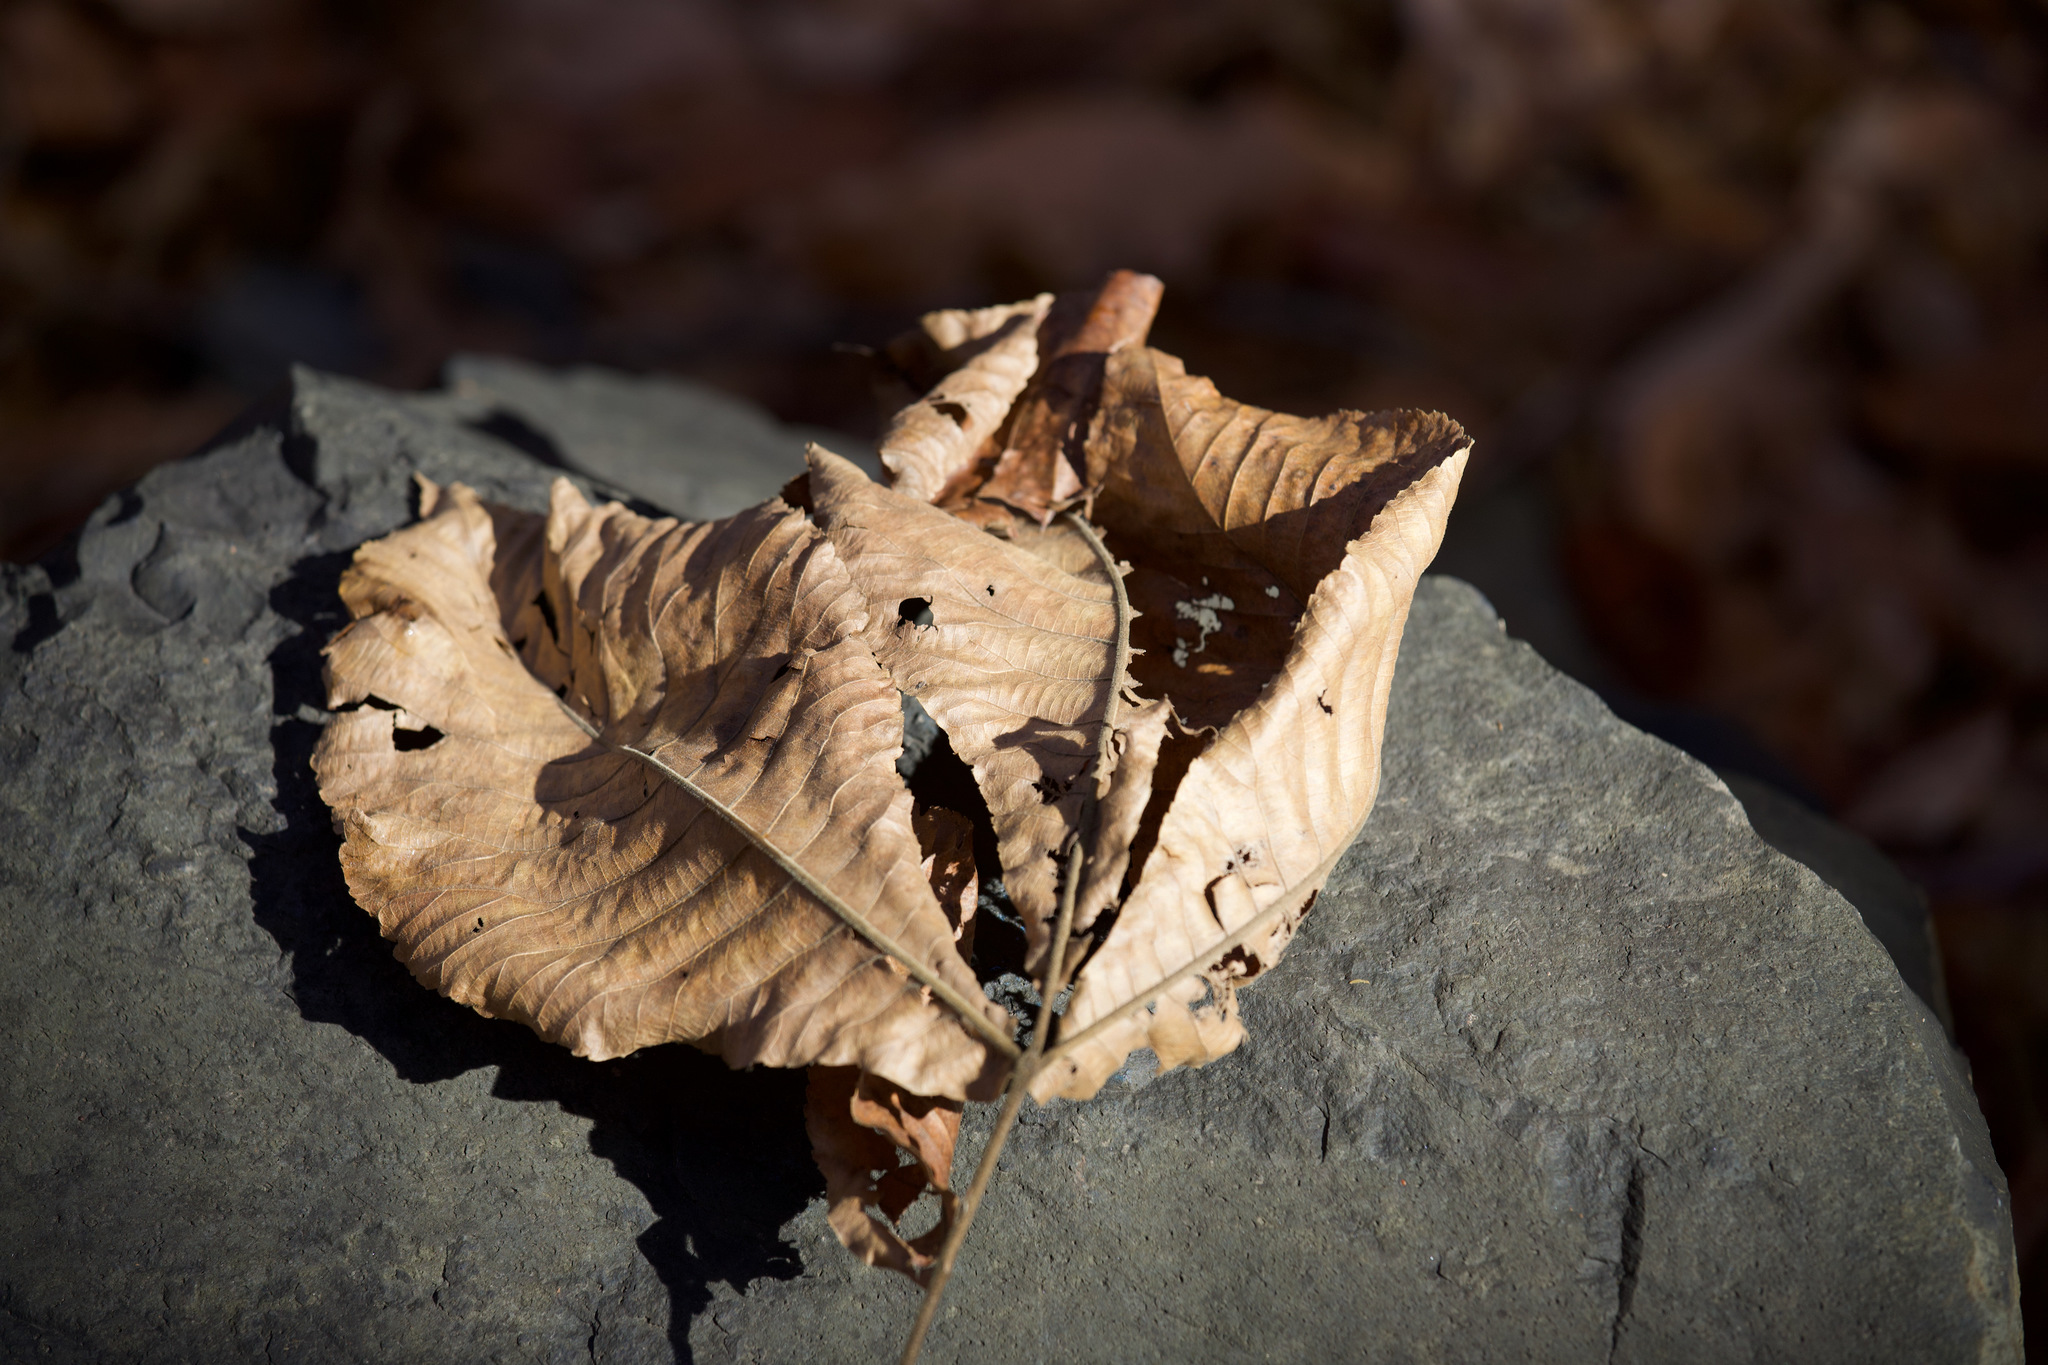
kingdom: Plantae
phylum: Tracheophyta
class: Magnoliopsida
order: Fagales
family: Juglandaceae
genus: Carya
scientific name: Carya ovata
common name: Shagbark hickory
